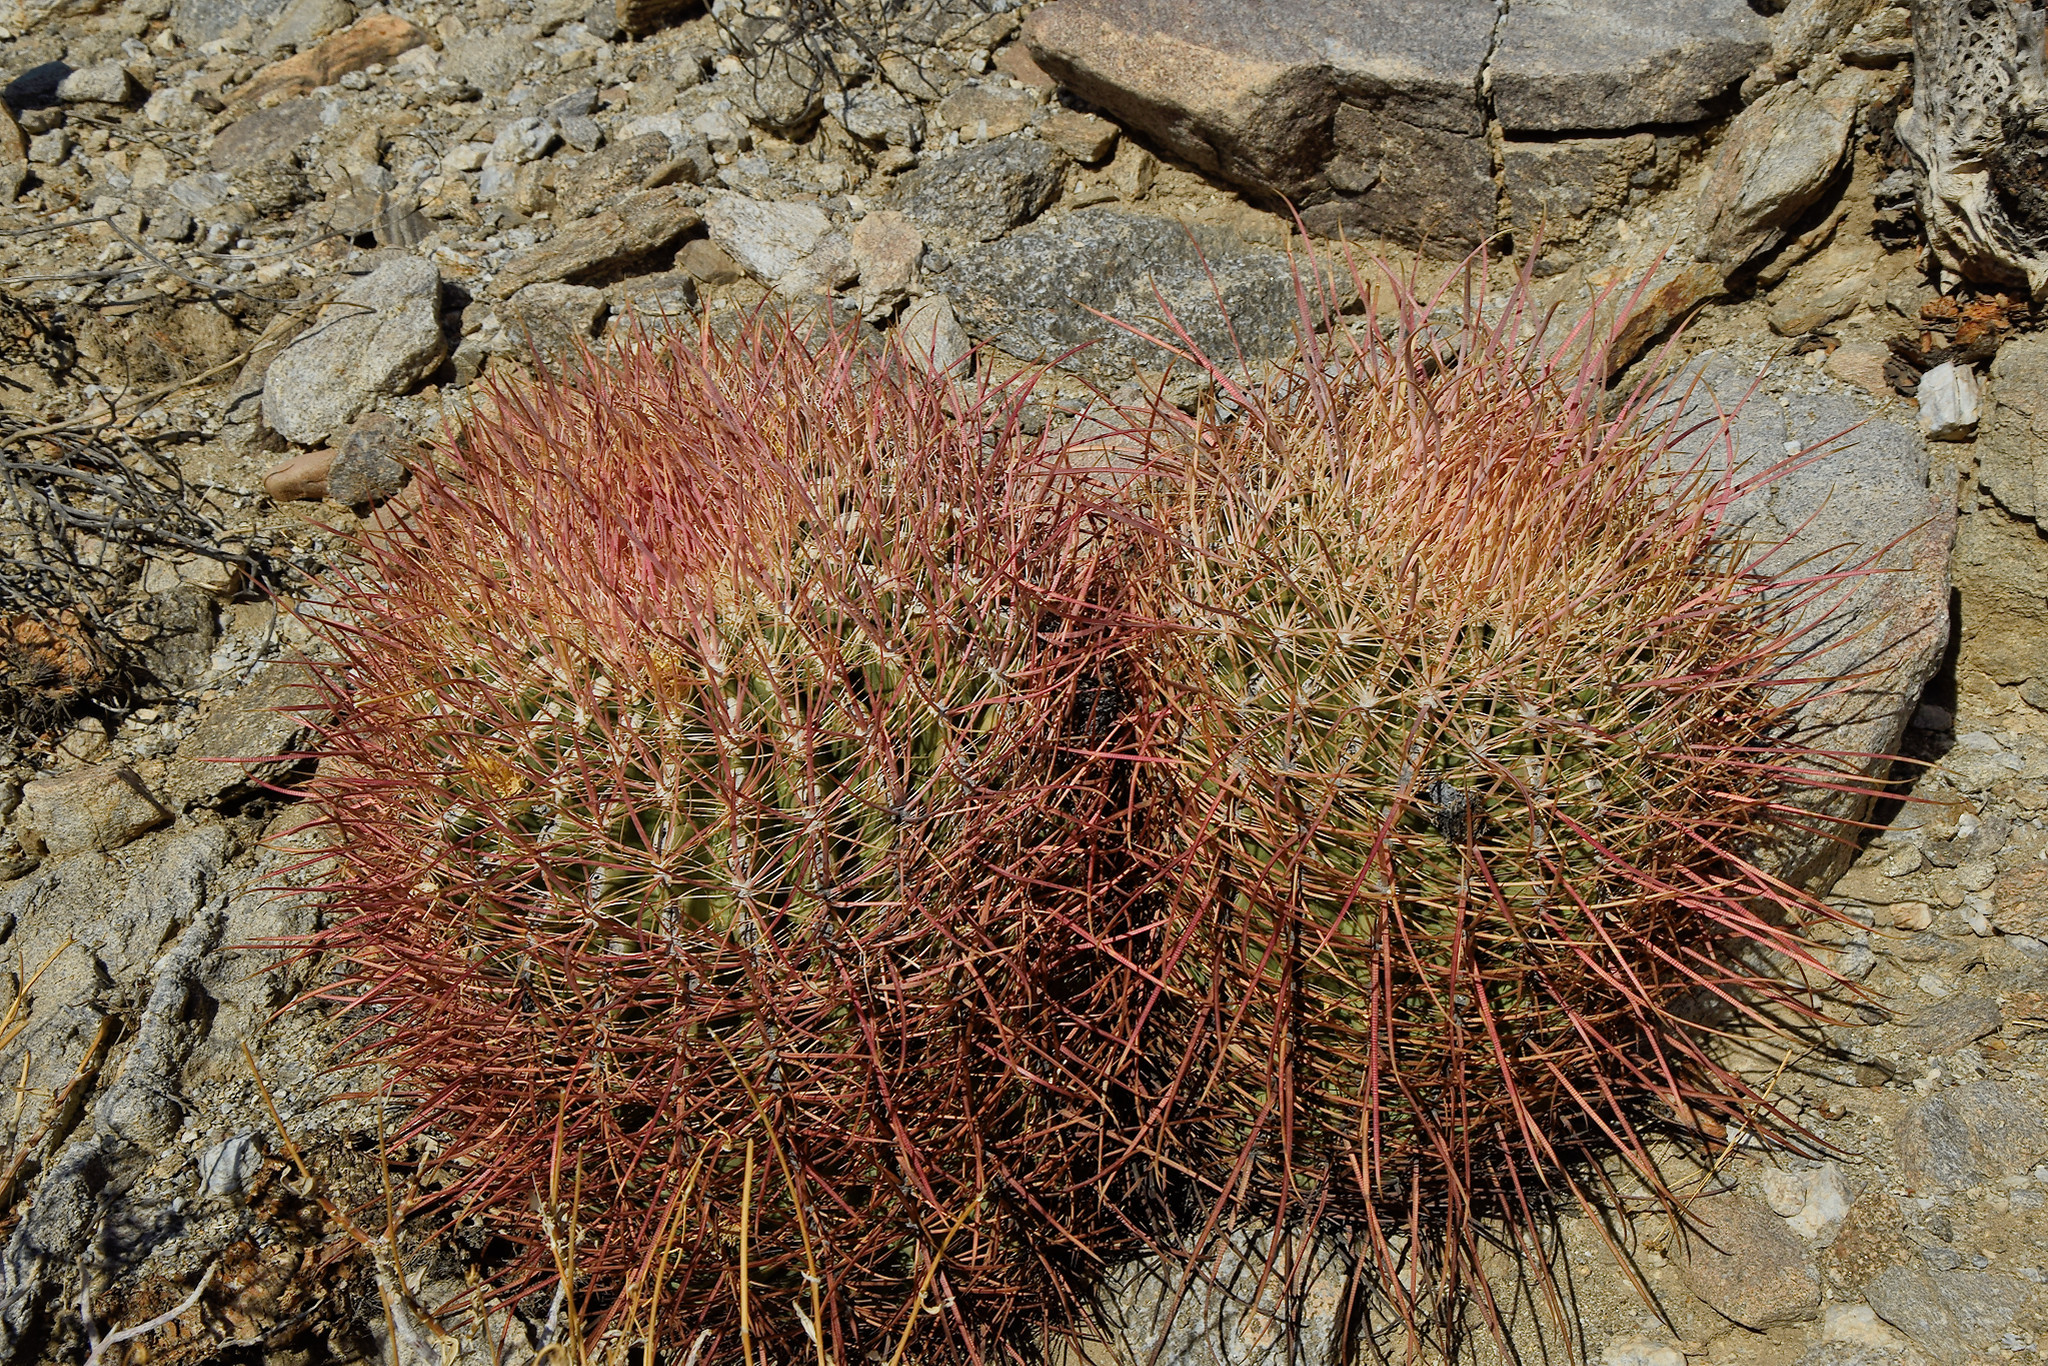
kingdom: Plantae
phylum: Tracheophyta
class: Magnoliopsida
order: Caryophyllales
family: Cactaceae
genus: Ferocactus
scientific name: Ferocactus cylindraceus
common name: California barrel cactus
